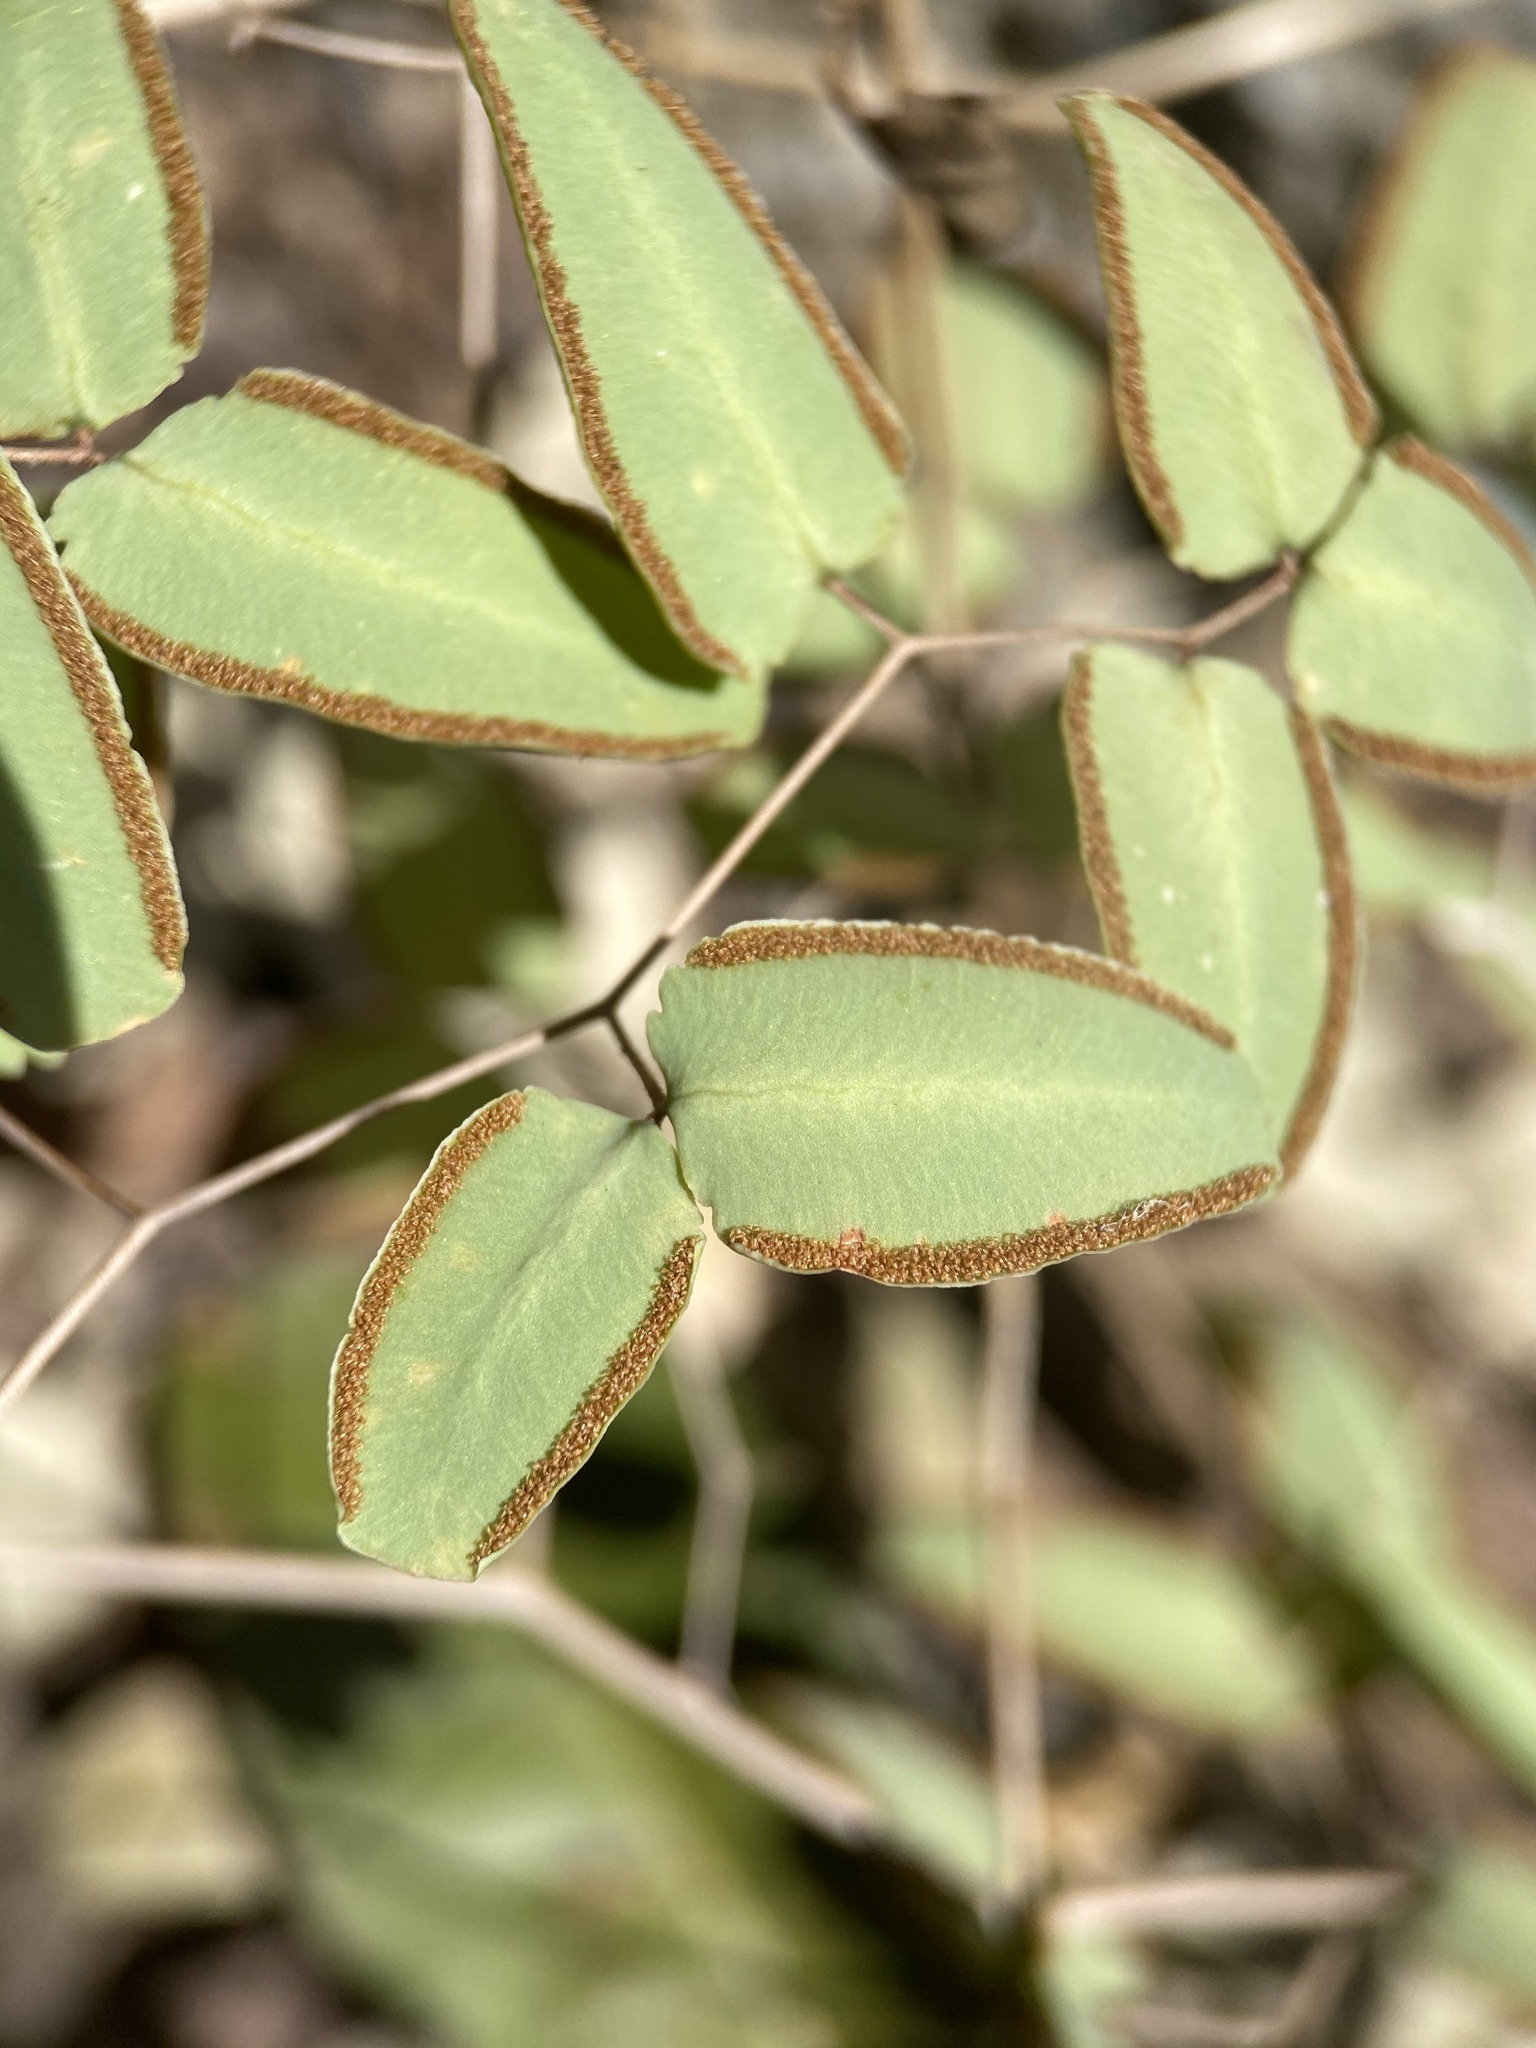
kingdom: Plantae
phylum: Tracheophyta
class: Polypodiopsida
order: Polypodiales
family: Pteridaceae
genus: Pellaea
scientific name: Pellaea ovata
